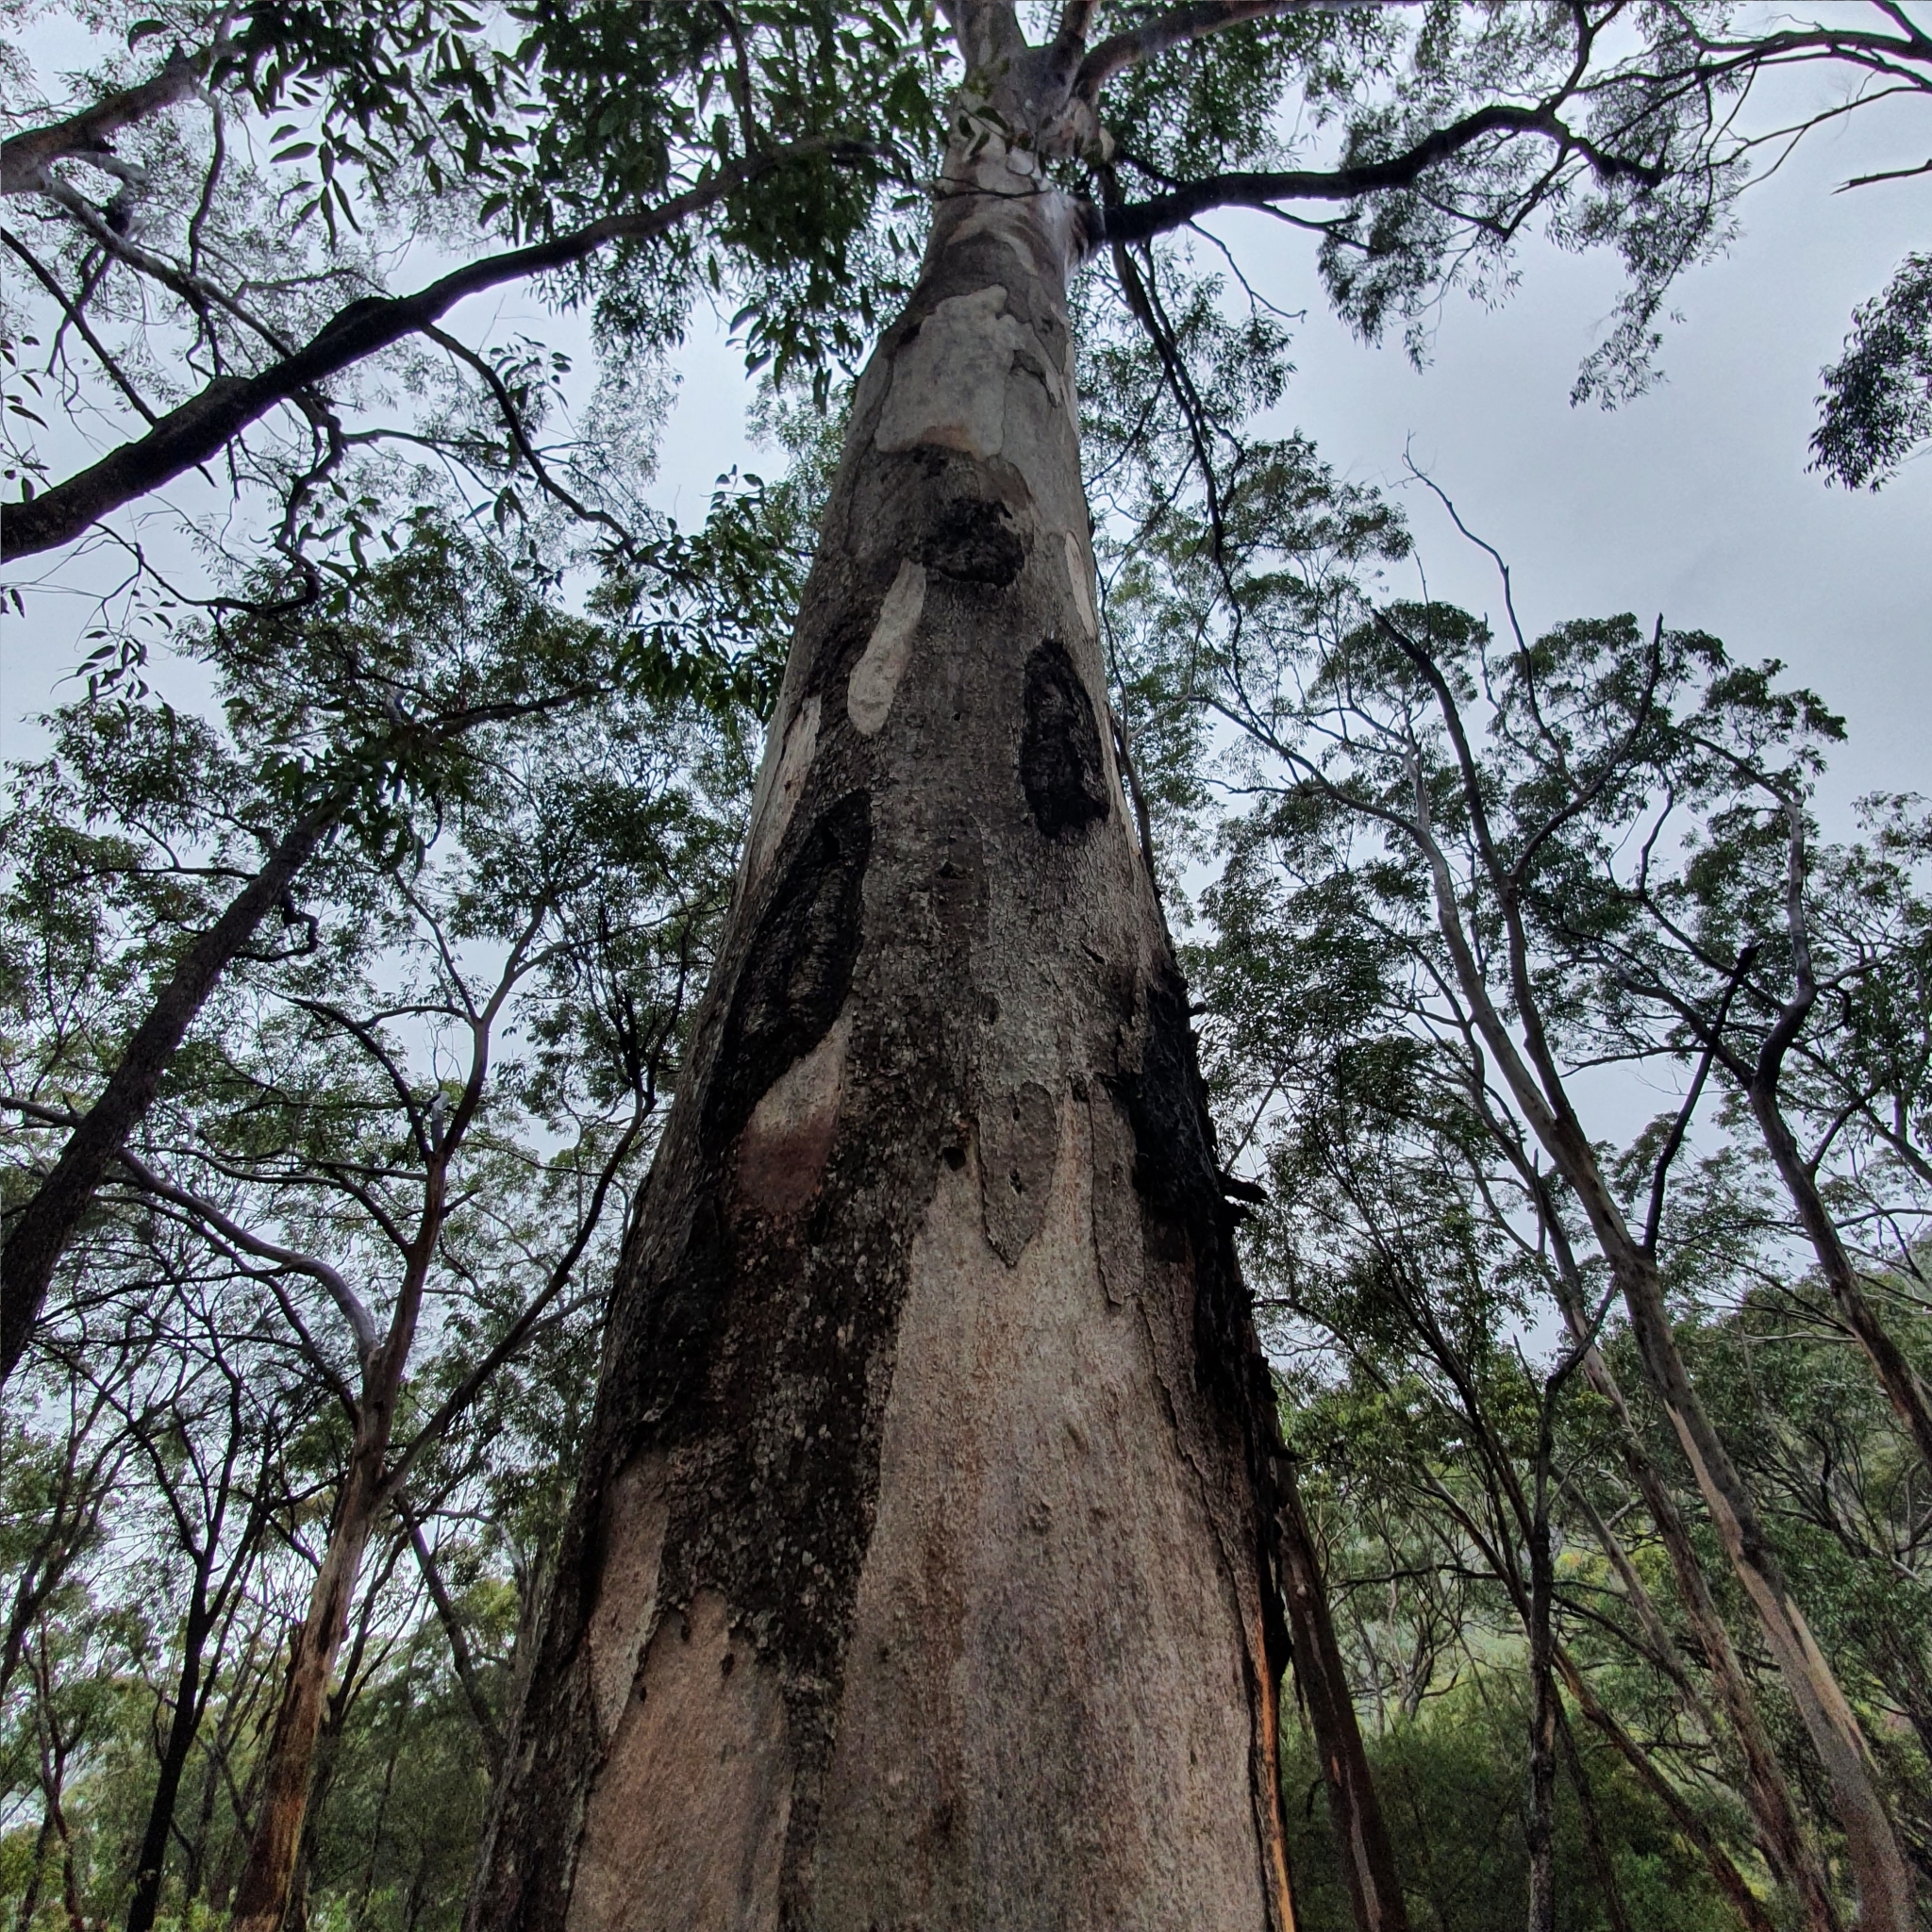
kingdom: Plantae
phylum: Tracheophyta
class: Magnoliopsida
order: Myrtales
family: Myrtaceae
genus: Eucalyptus
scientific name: Eucalyptus punctata
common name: Gray gum
